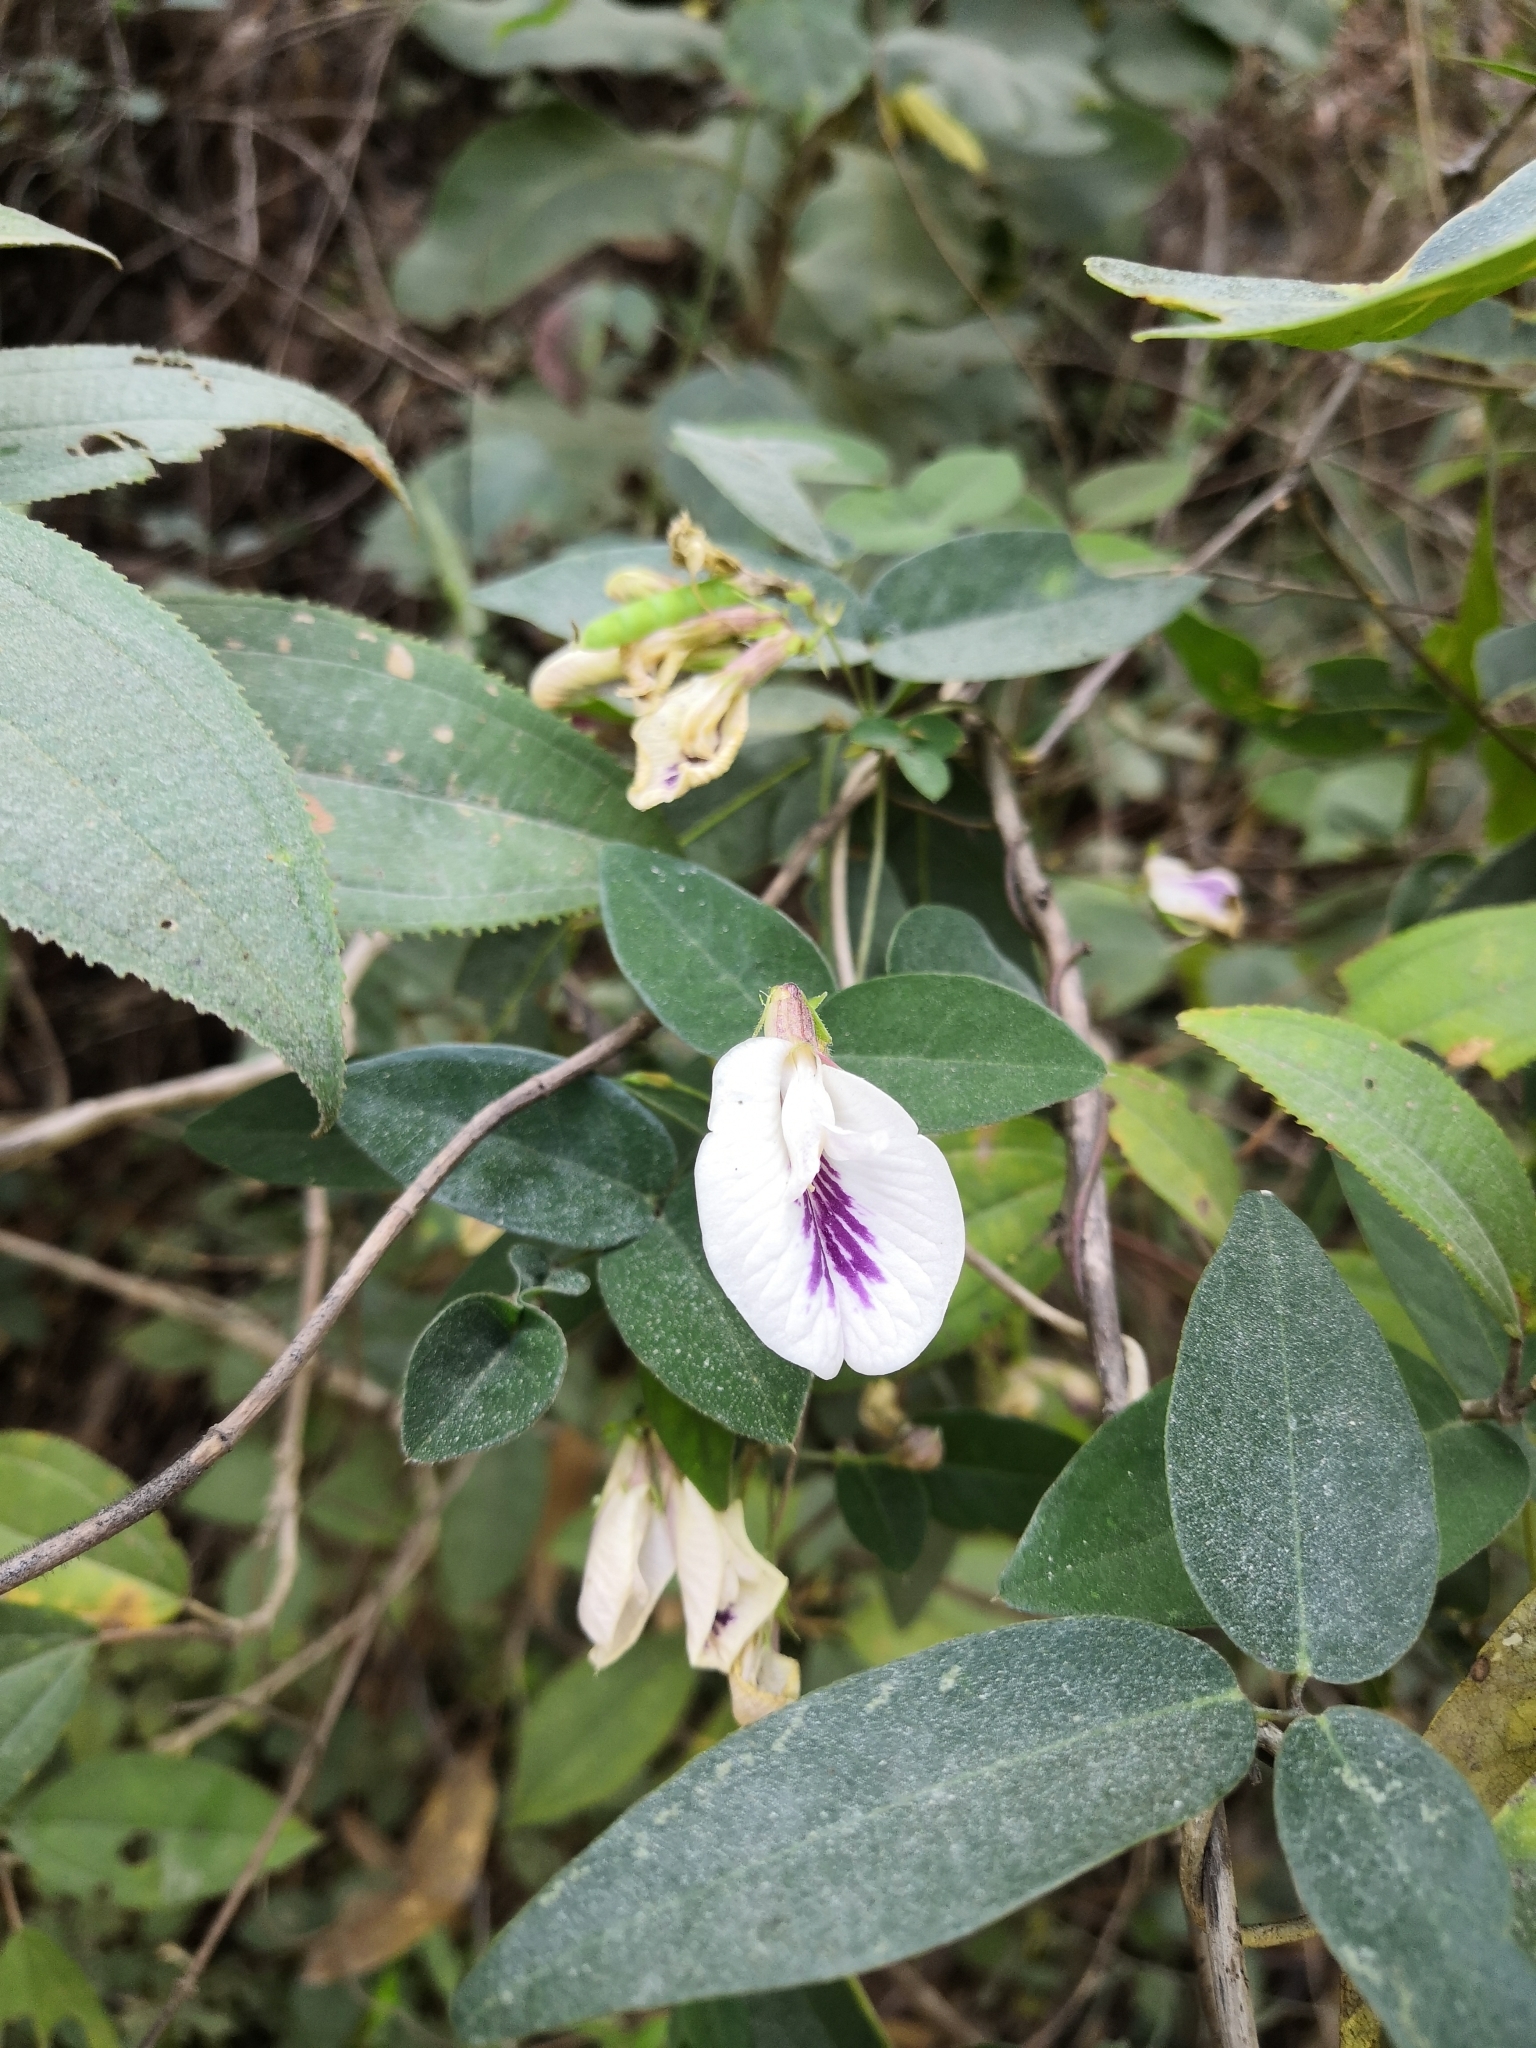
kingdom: Plantae
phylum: Tracheophyta
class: Magnoliopsida
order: Fabales
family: Fabaceae
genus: Clitoria
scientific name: Clitoria mexicana
